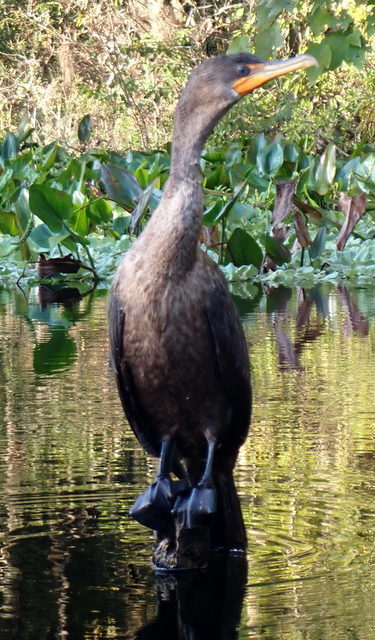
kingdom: Animalia
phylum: Chordata
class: Aves
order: Suliformes
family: Phalacrocoracidae
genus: Phalacrocorax
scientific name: Phalacrocorax auritus
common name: Double-crested cormorant
